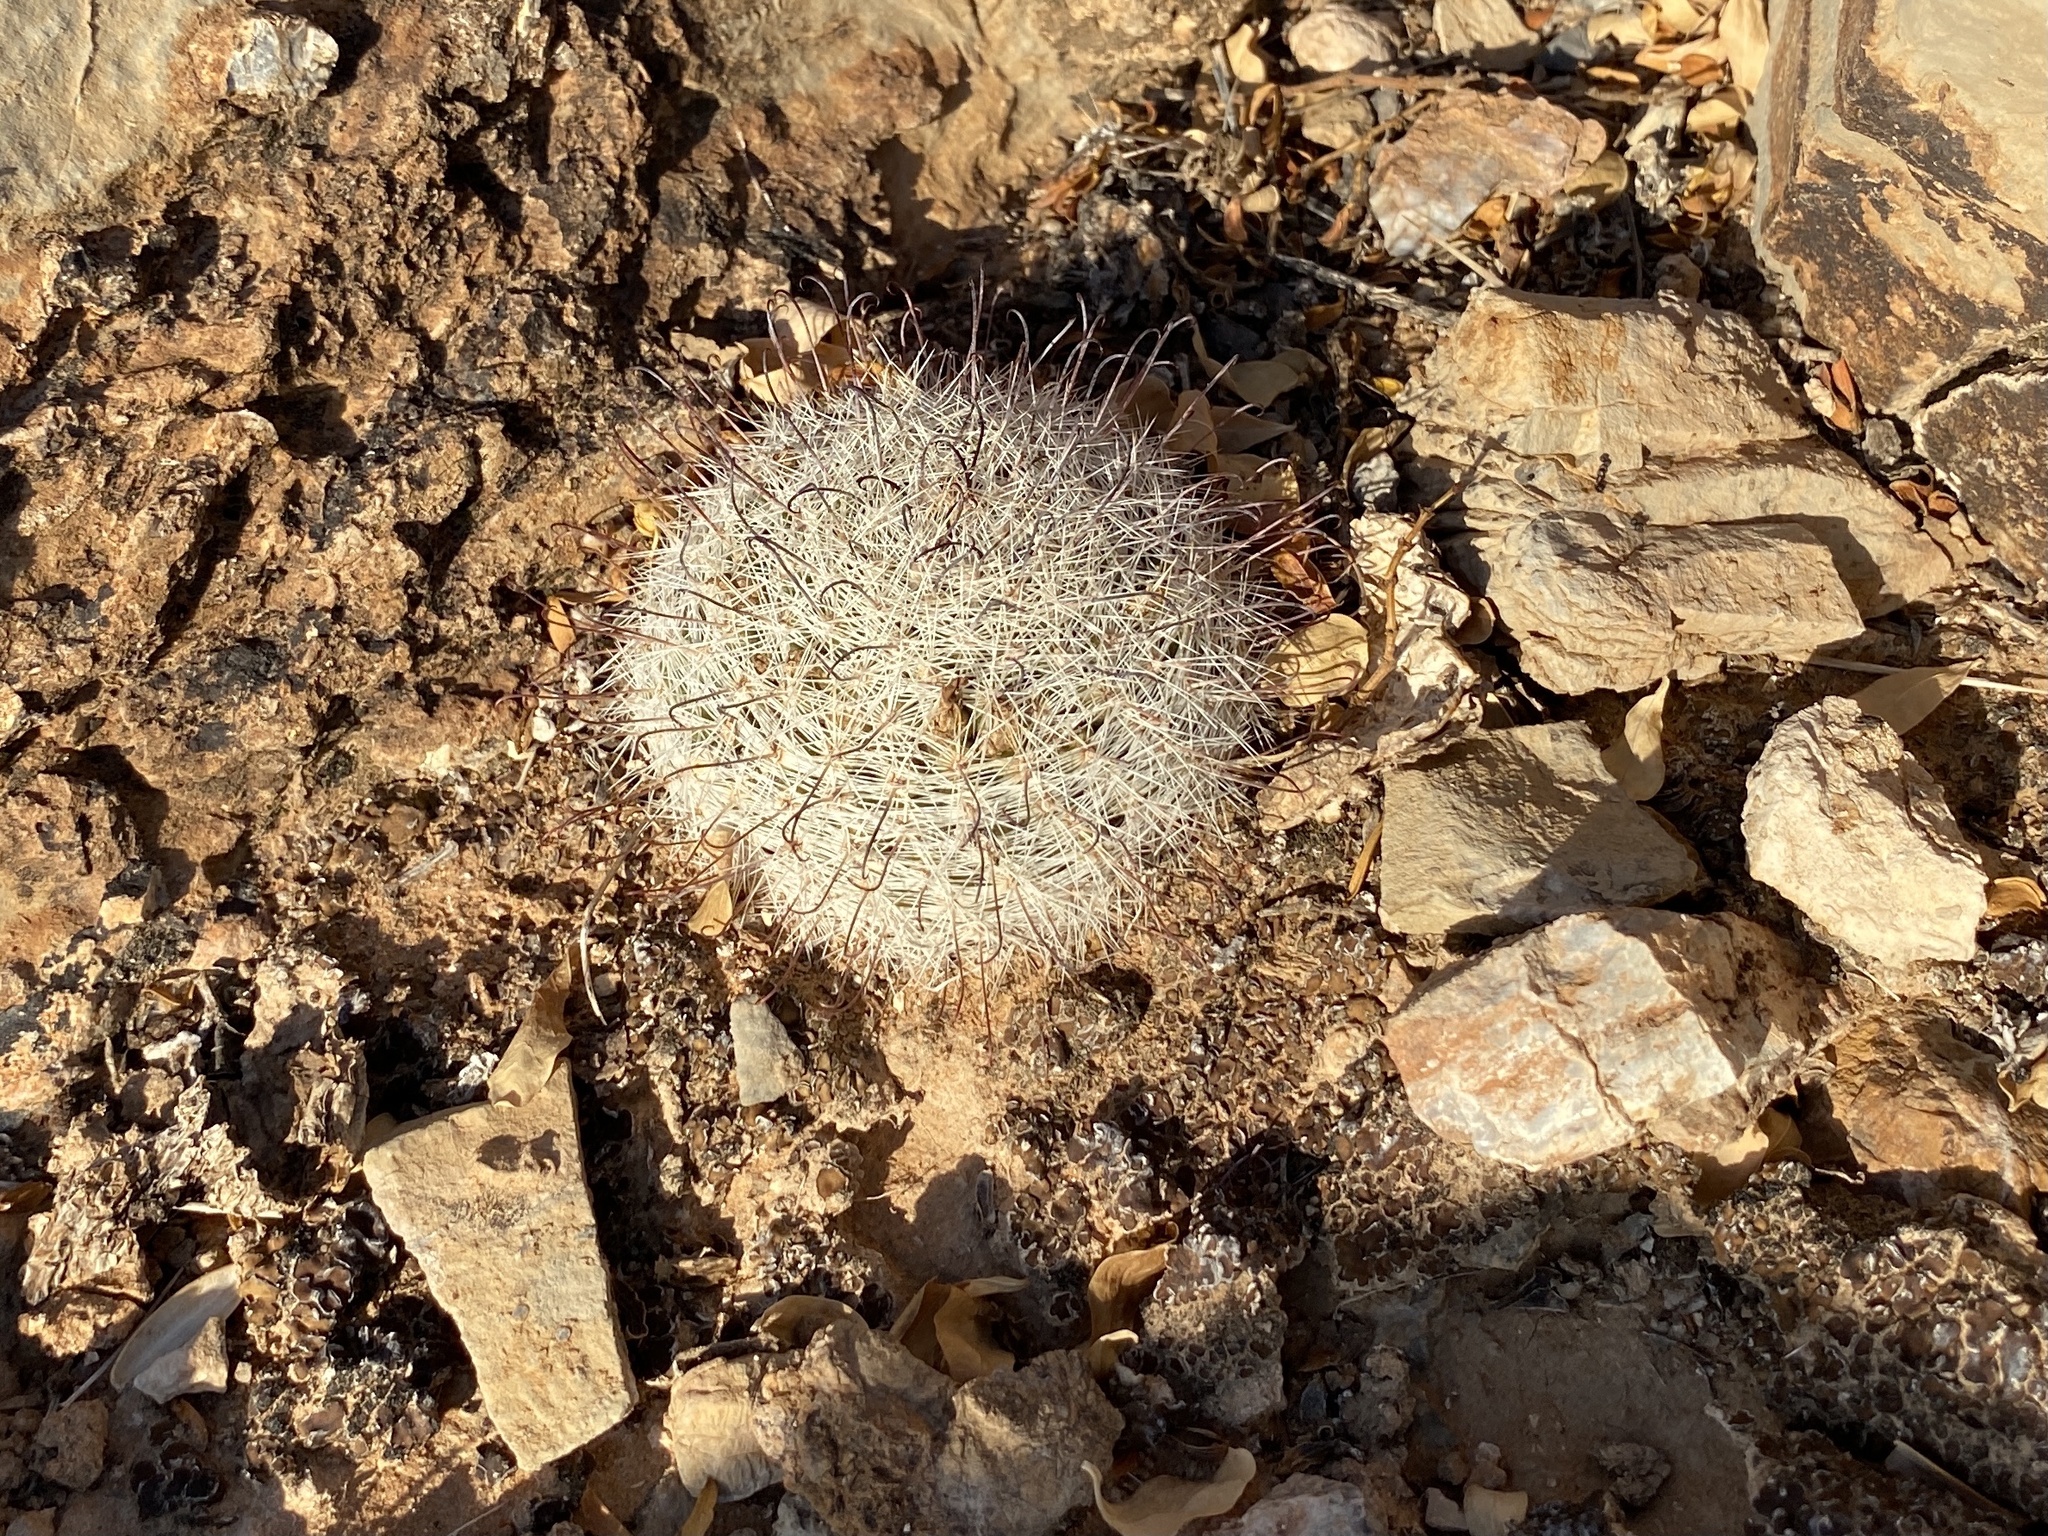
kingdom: Plantae
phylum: Tracheophyta
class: Magnoliopsida
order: Caryophyllales
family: Cactaceae
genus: Cochemiea
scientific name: Cochemiea grahamii
